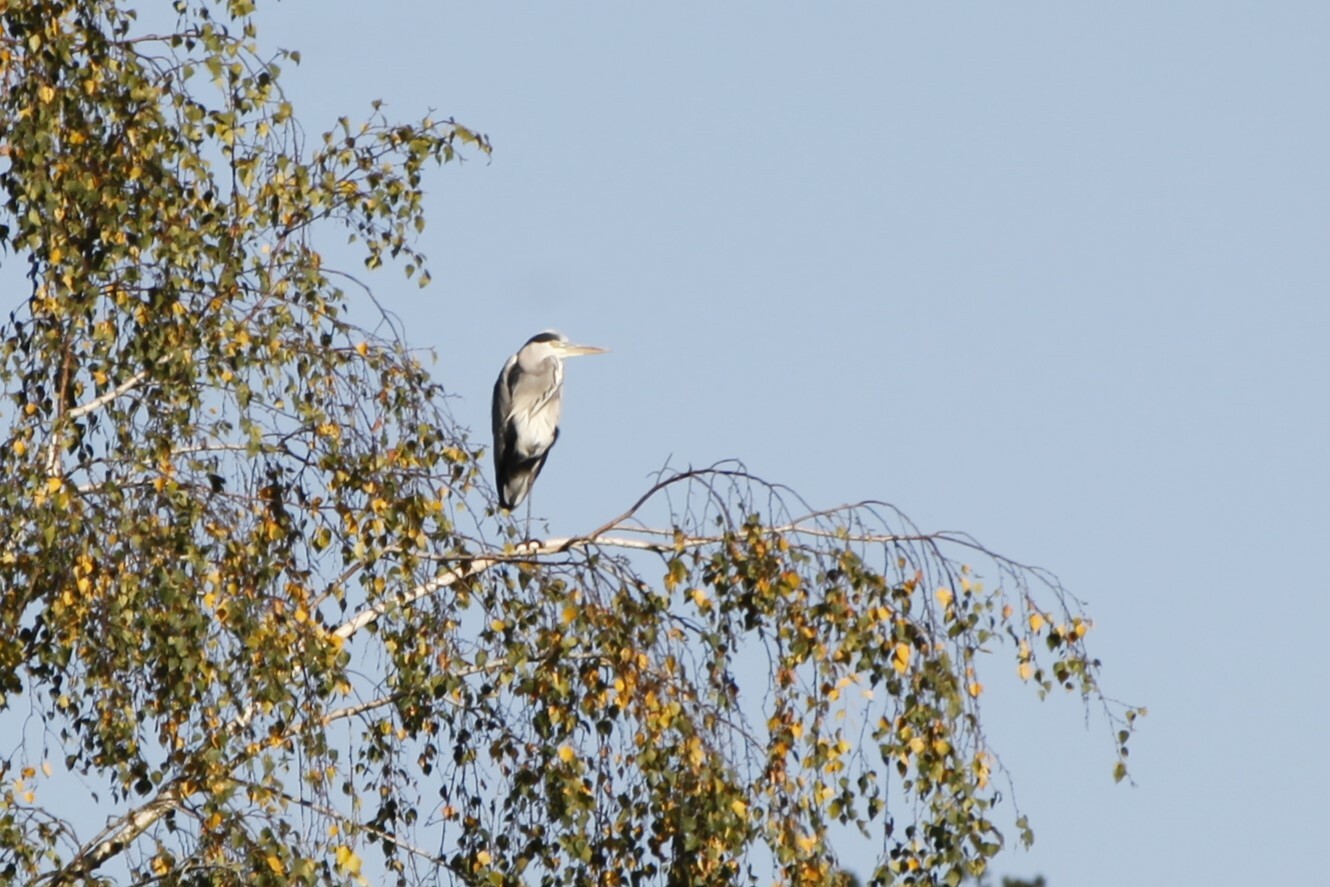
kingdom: Animalia
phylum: Chordata
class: Aves
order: Pelecaniformes
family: Ardeidae
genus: Ardea
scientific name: Ardea cinerea
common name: Grey heron
